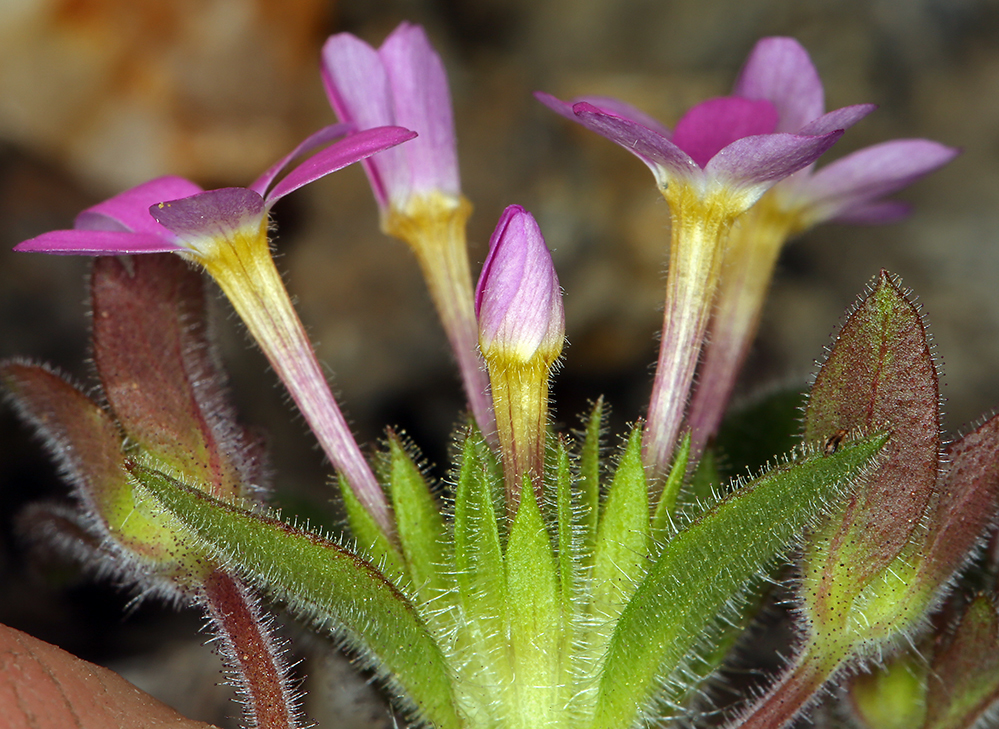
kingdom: Plantae
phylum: Tracheophyta
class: Magnoliopsida
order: Ericales
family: Polemoniaceae
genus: Collomia
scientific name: Collomia heterophylla
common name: Variable-leaved collomia
